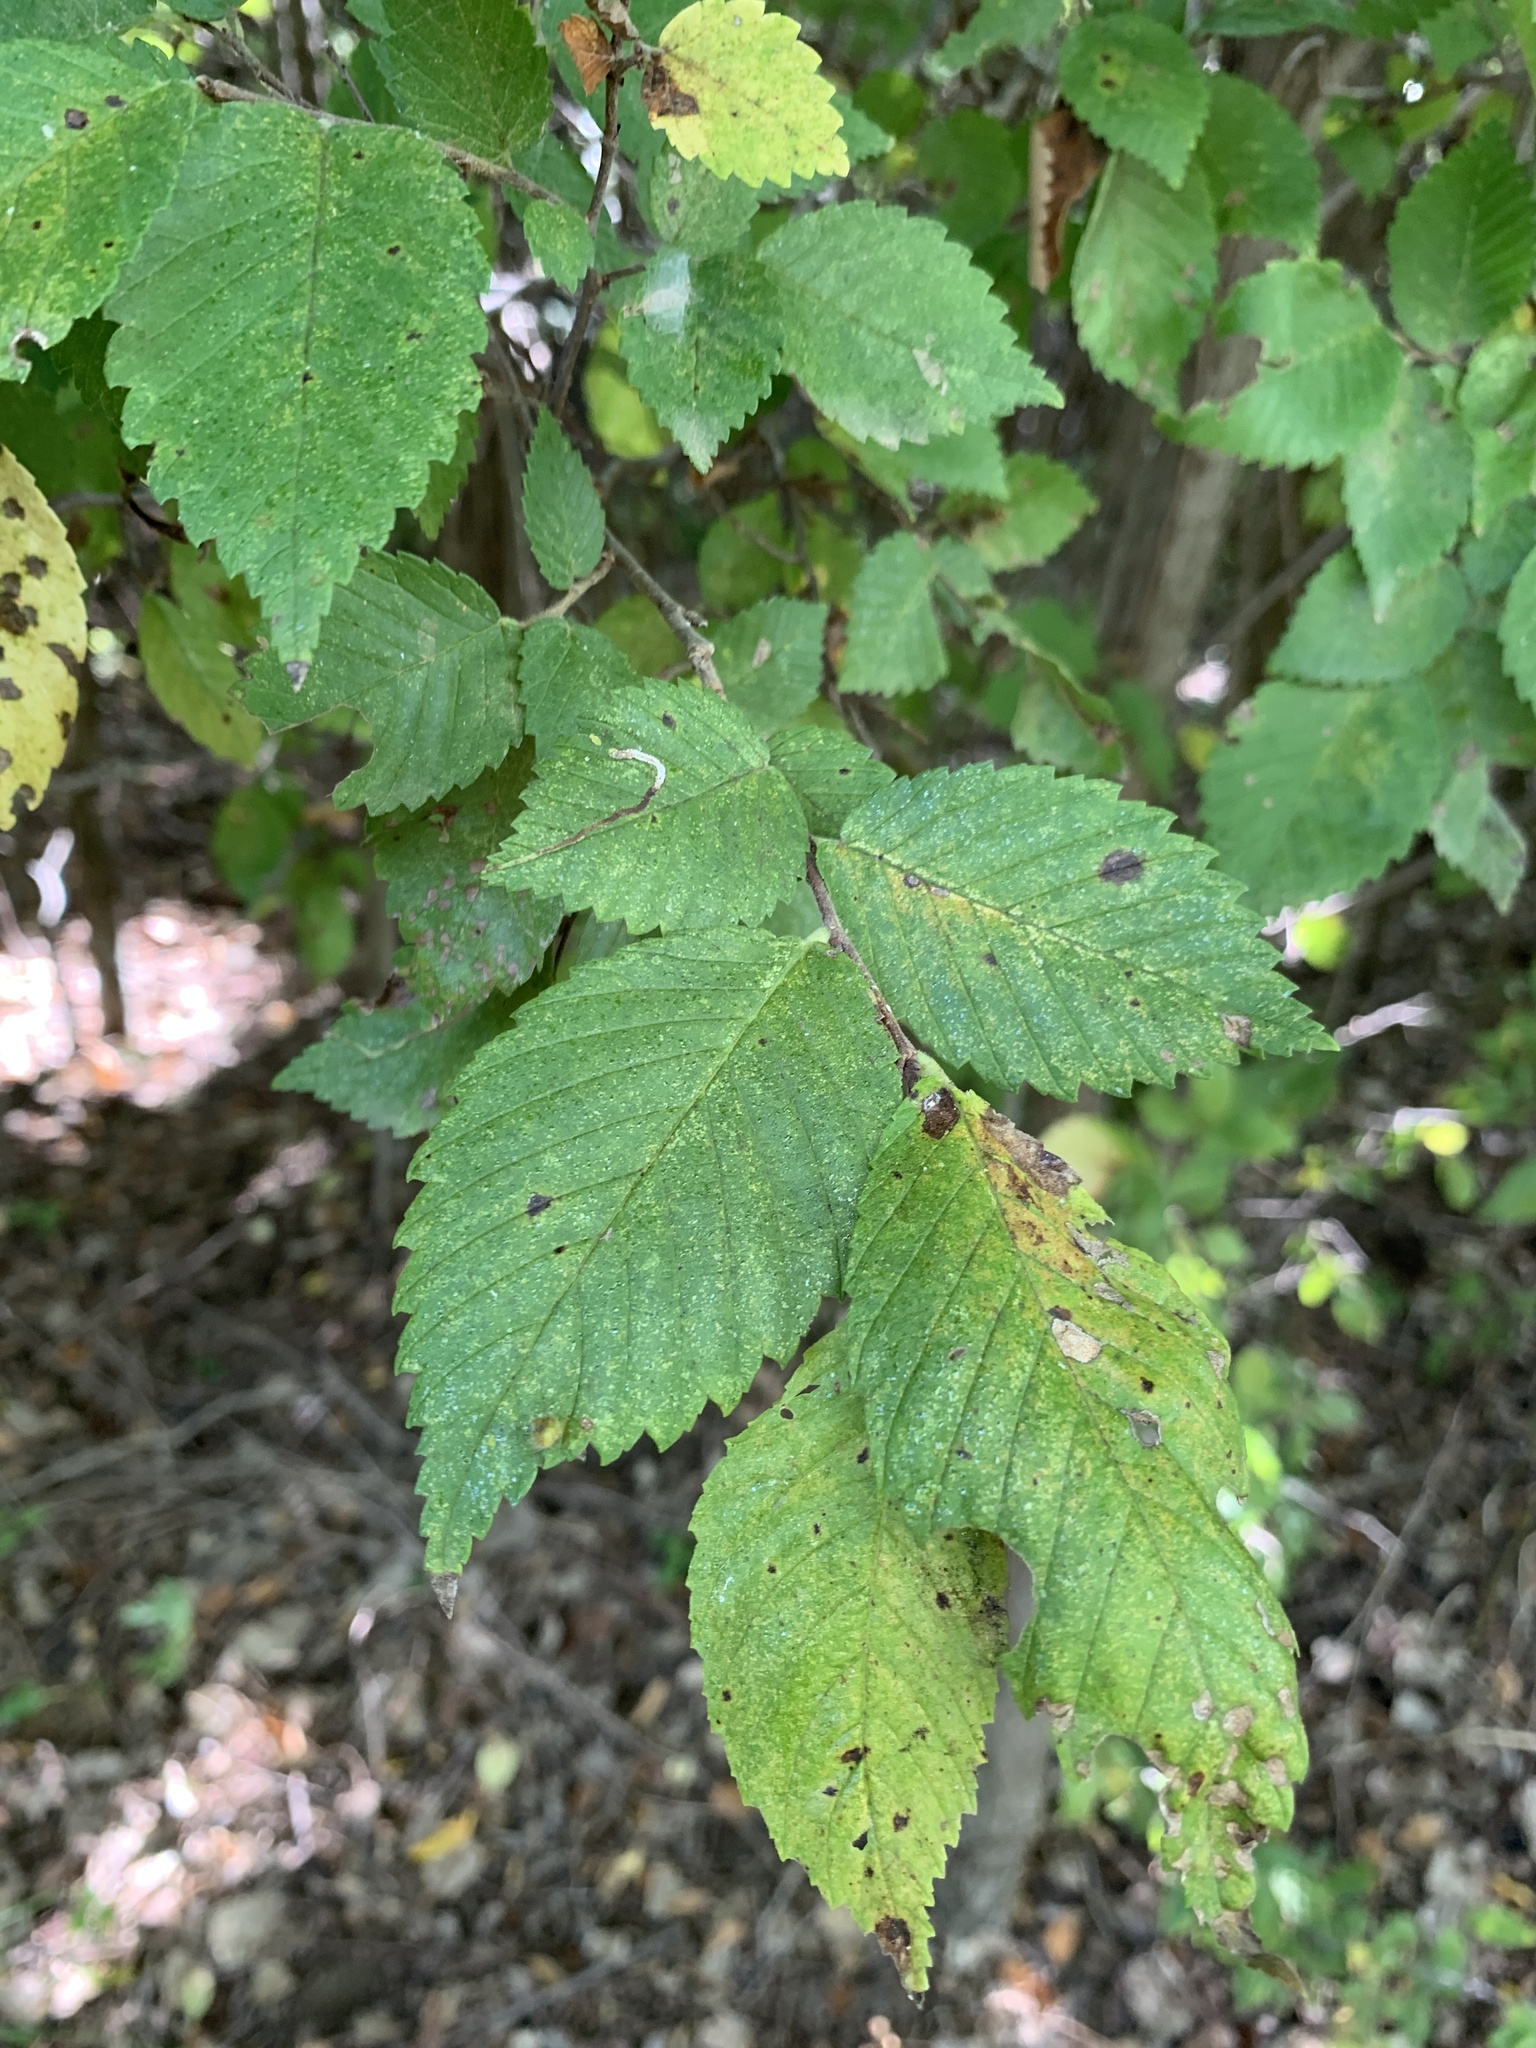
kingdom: Plantae
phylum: Tracheophyta
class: Magnoliopsida
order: Rosales
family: Ulmaceae
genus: Ulmus
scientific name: Ulmus americana
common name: American elm
